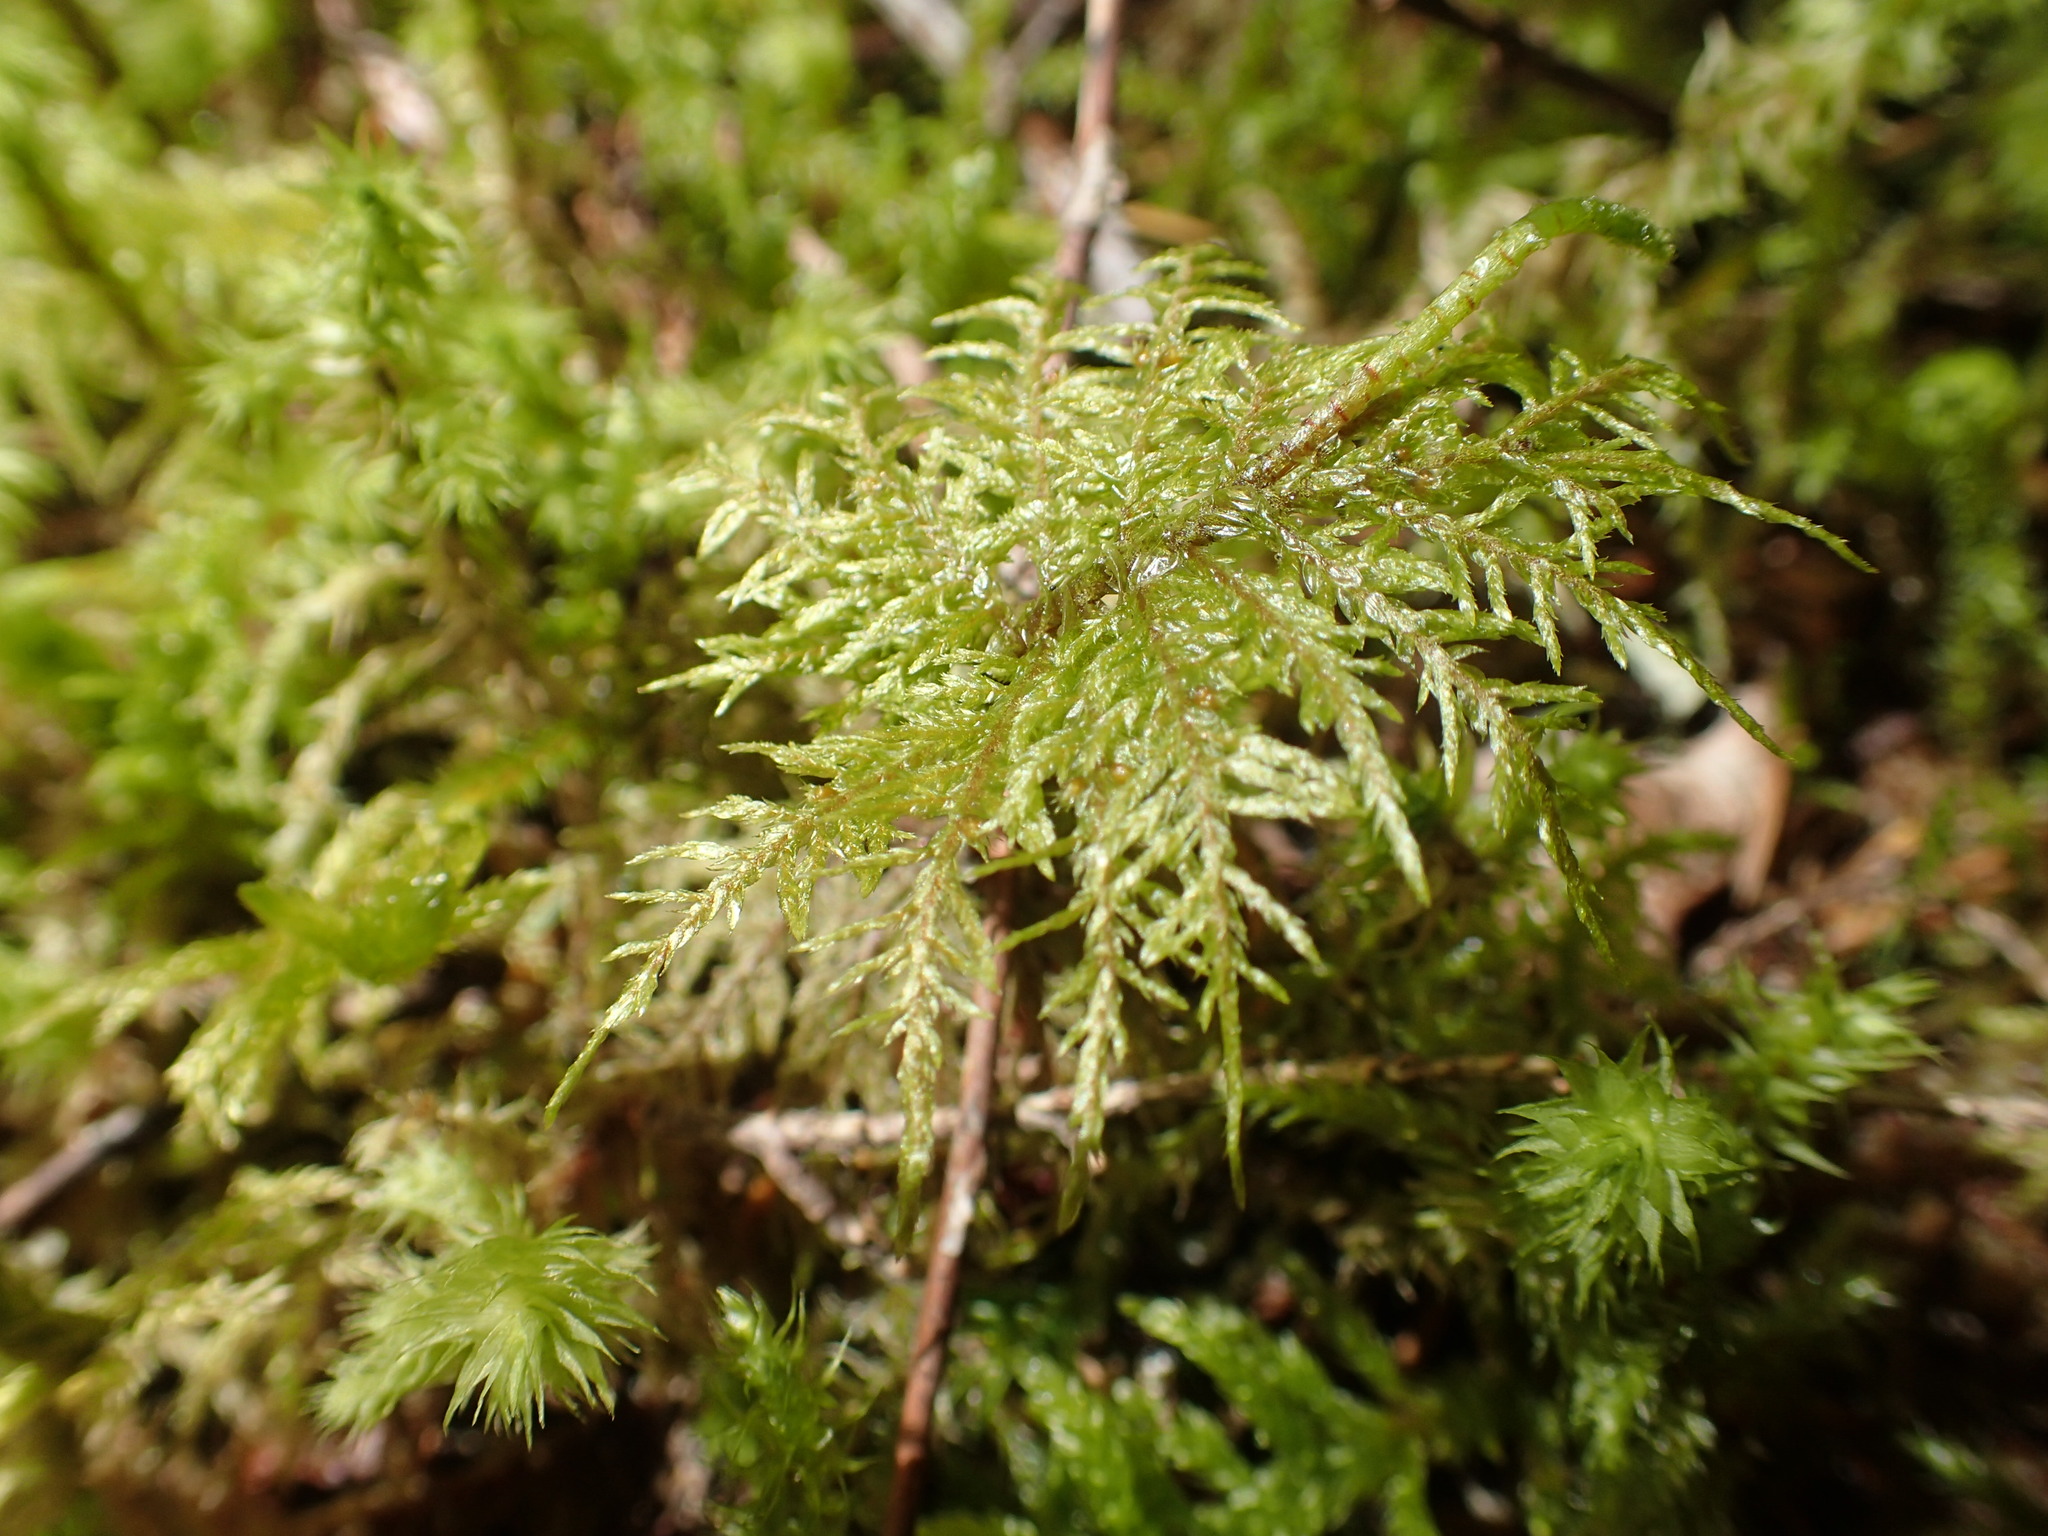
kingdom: Plantae
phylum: Bryophyta
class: Bryopsida
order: Hypnales
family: Hylocomiaceae
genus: Hylocomium
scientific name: Hylocomium splendens
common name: Stairstep moss
